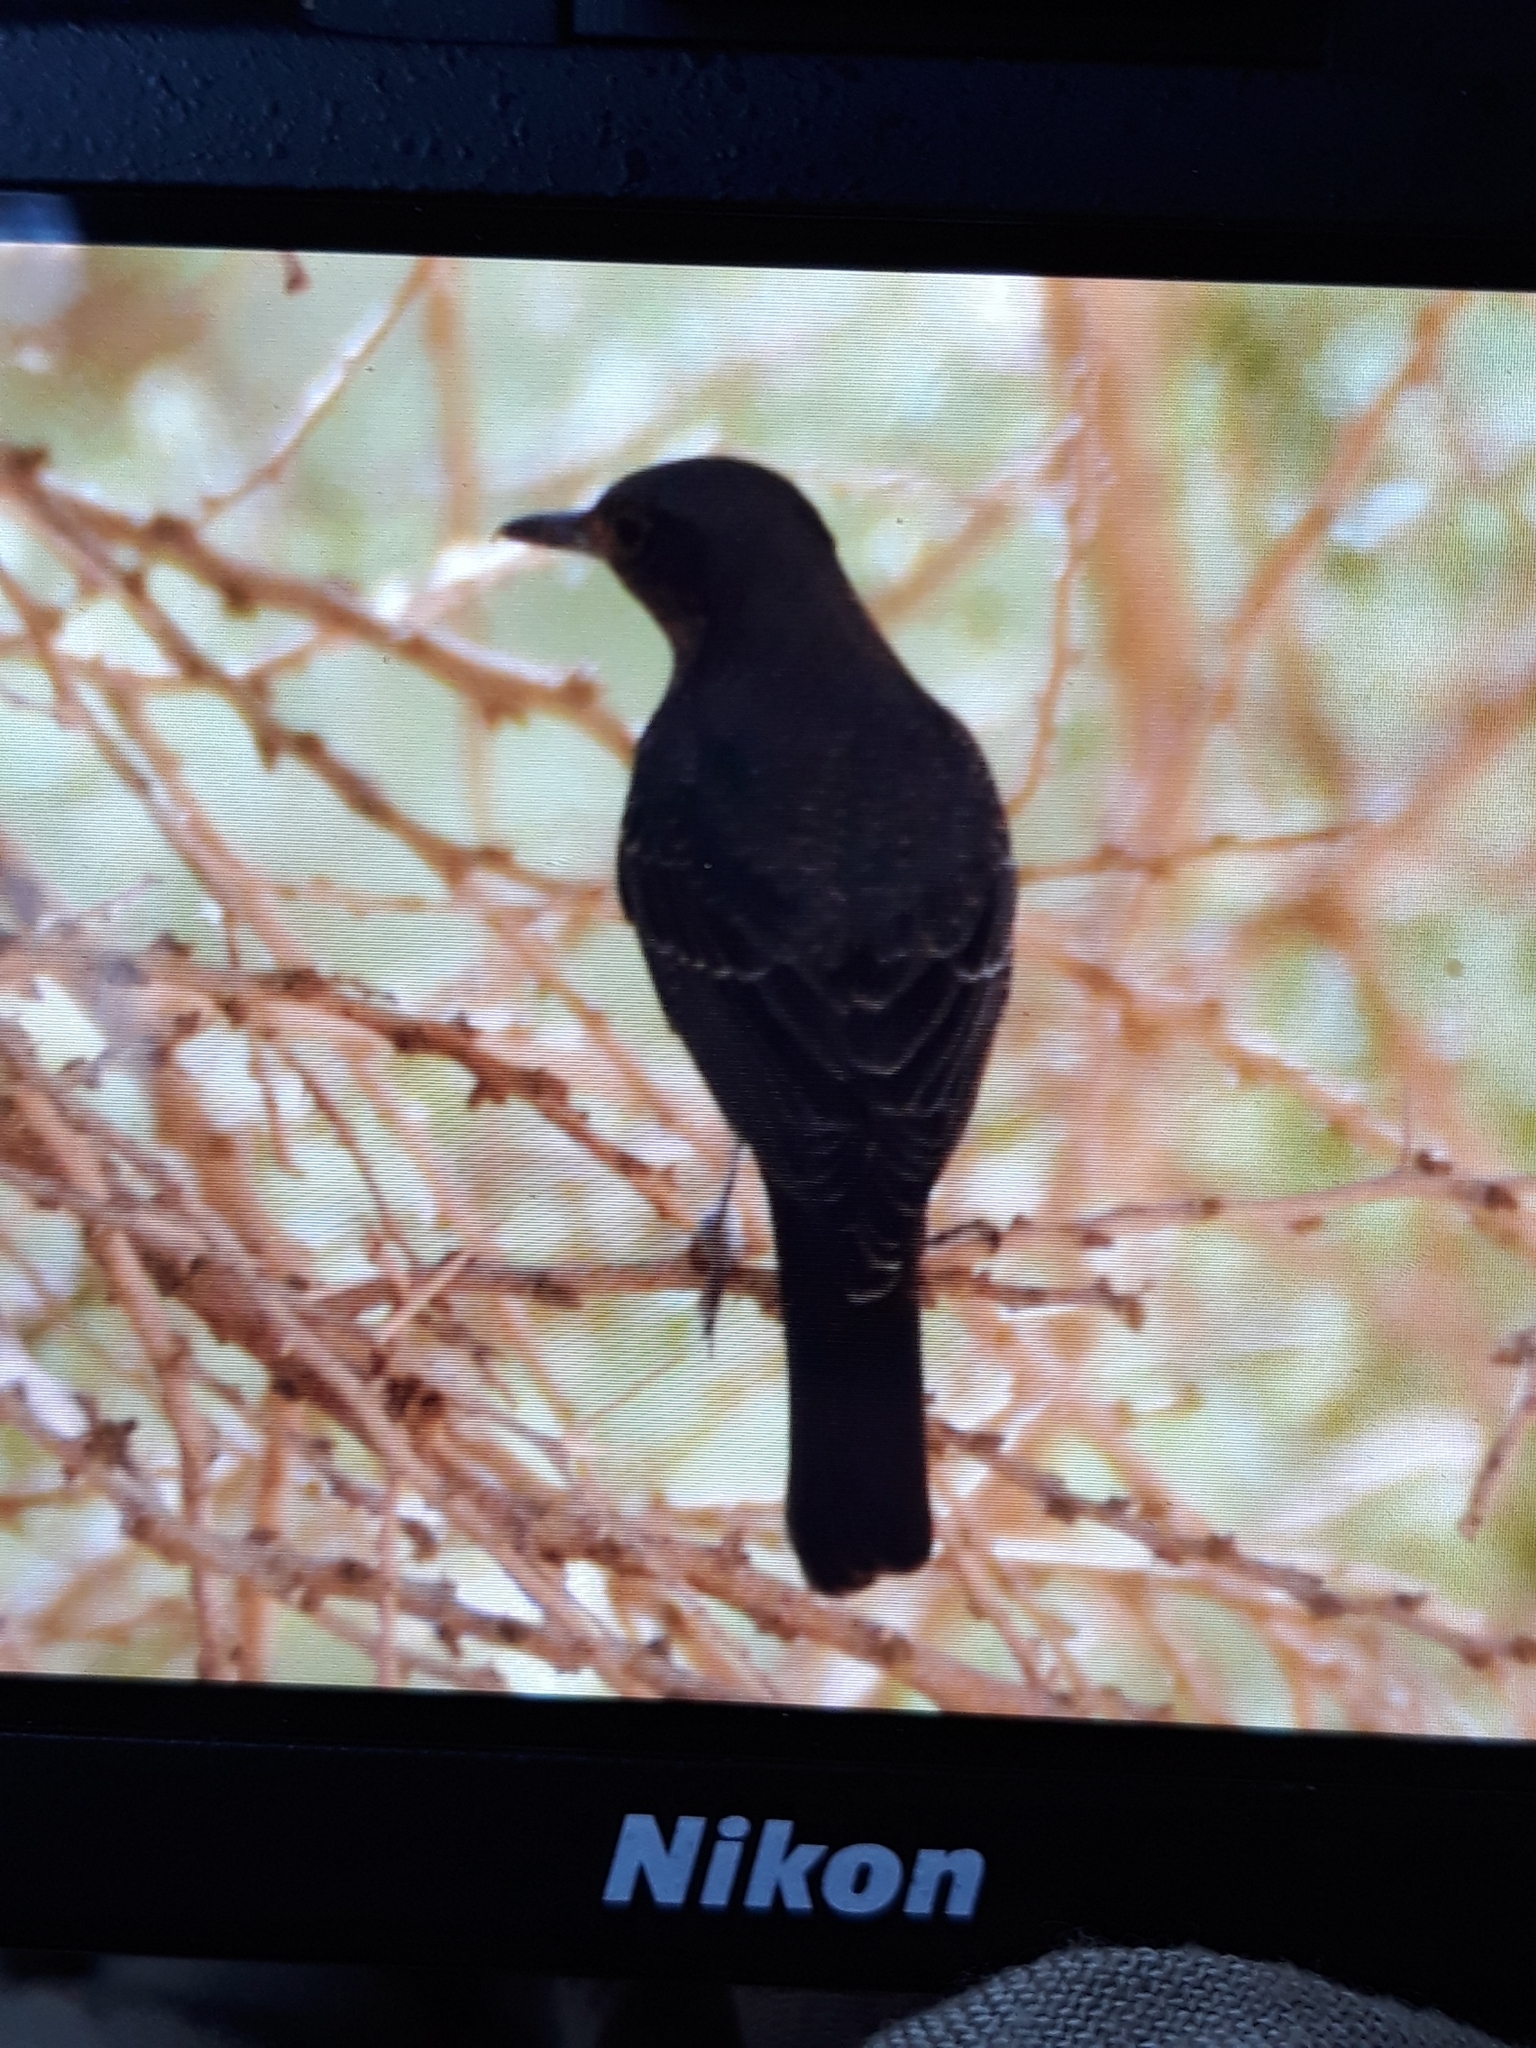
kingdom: Animalia
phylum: Chordata
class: Aves
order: Passeriformes
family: Muscicapidae
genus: Monticola
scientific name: Monticola solitarius
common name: Blue rock thrush
